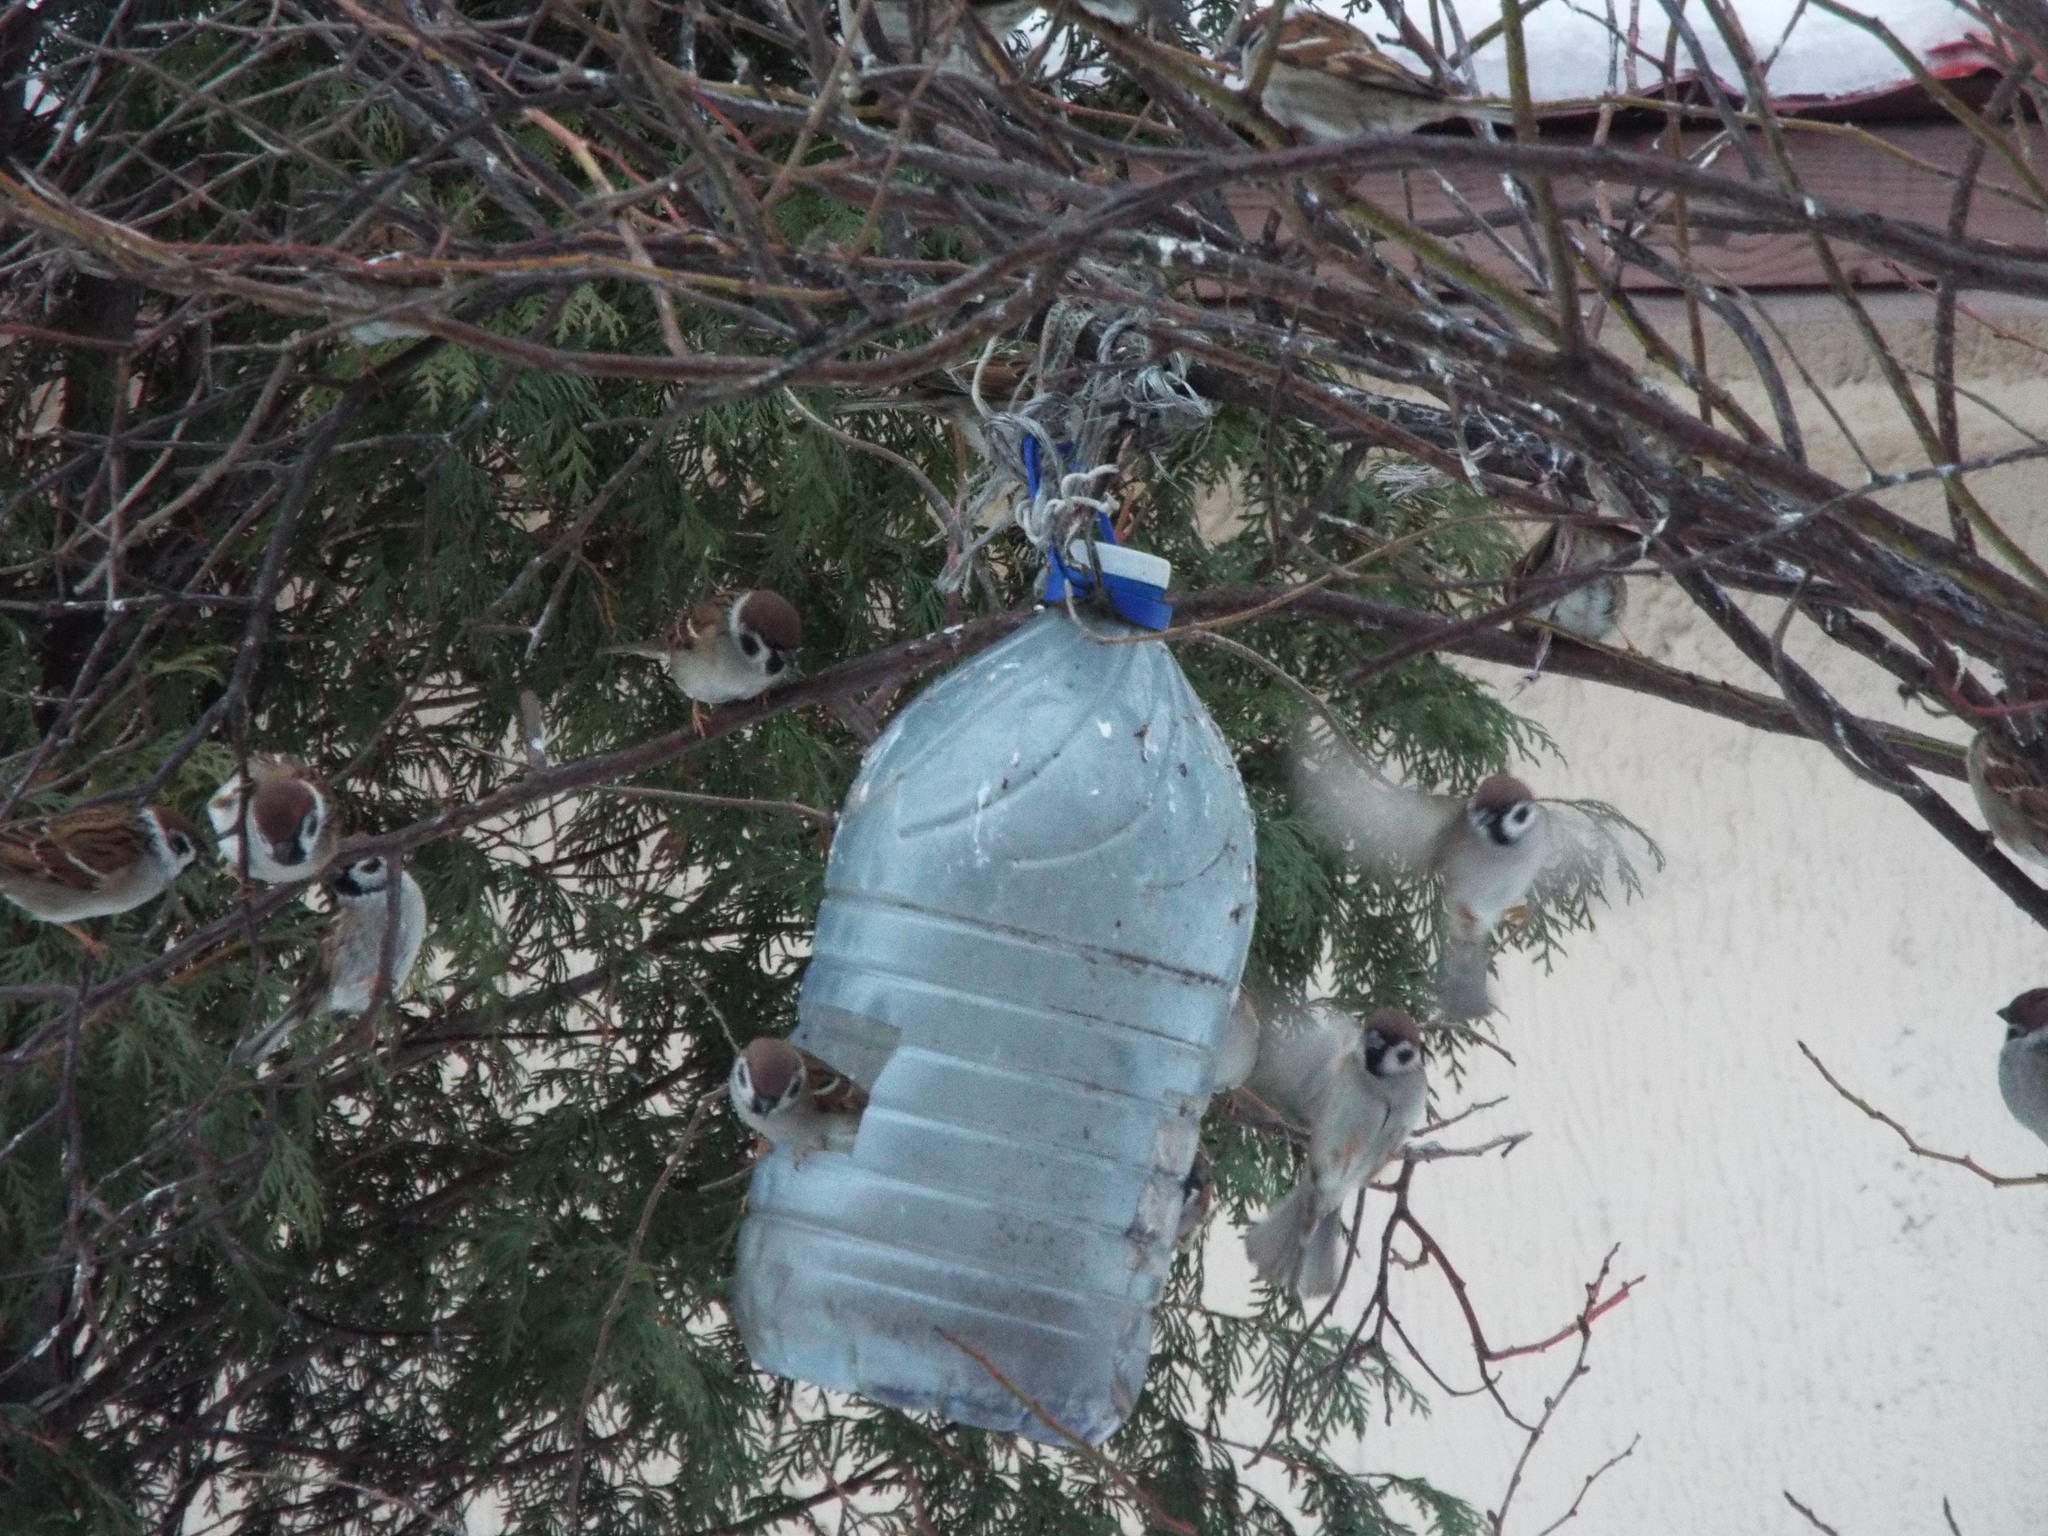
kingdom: Animalia
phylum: Chordata
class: Aves
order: Passeriformes
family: Passeridae
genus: Passer
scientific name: Passer montanus
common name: Eurasian tree sparrow
